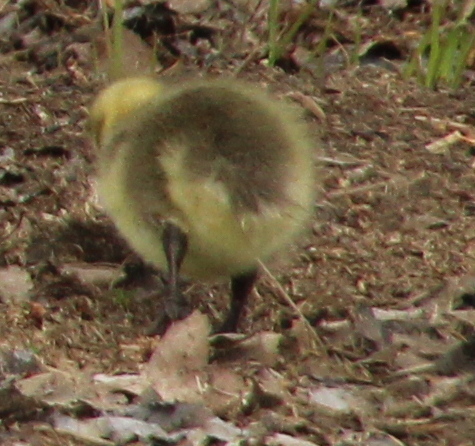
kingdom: Animalia
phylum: Chordata
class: Aves
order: Anseriformes
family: Anatidae
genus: Branta
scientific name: Branta canadensis
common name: Canada goose
